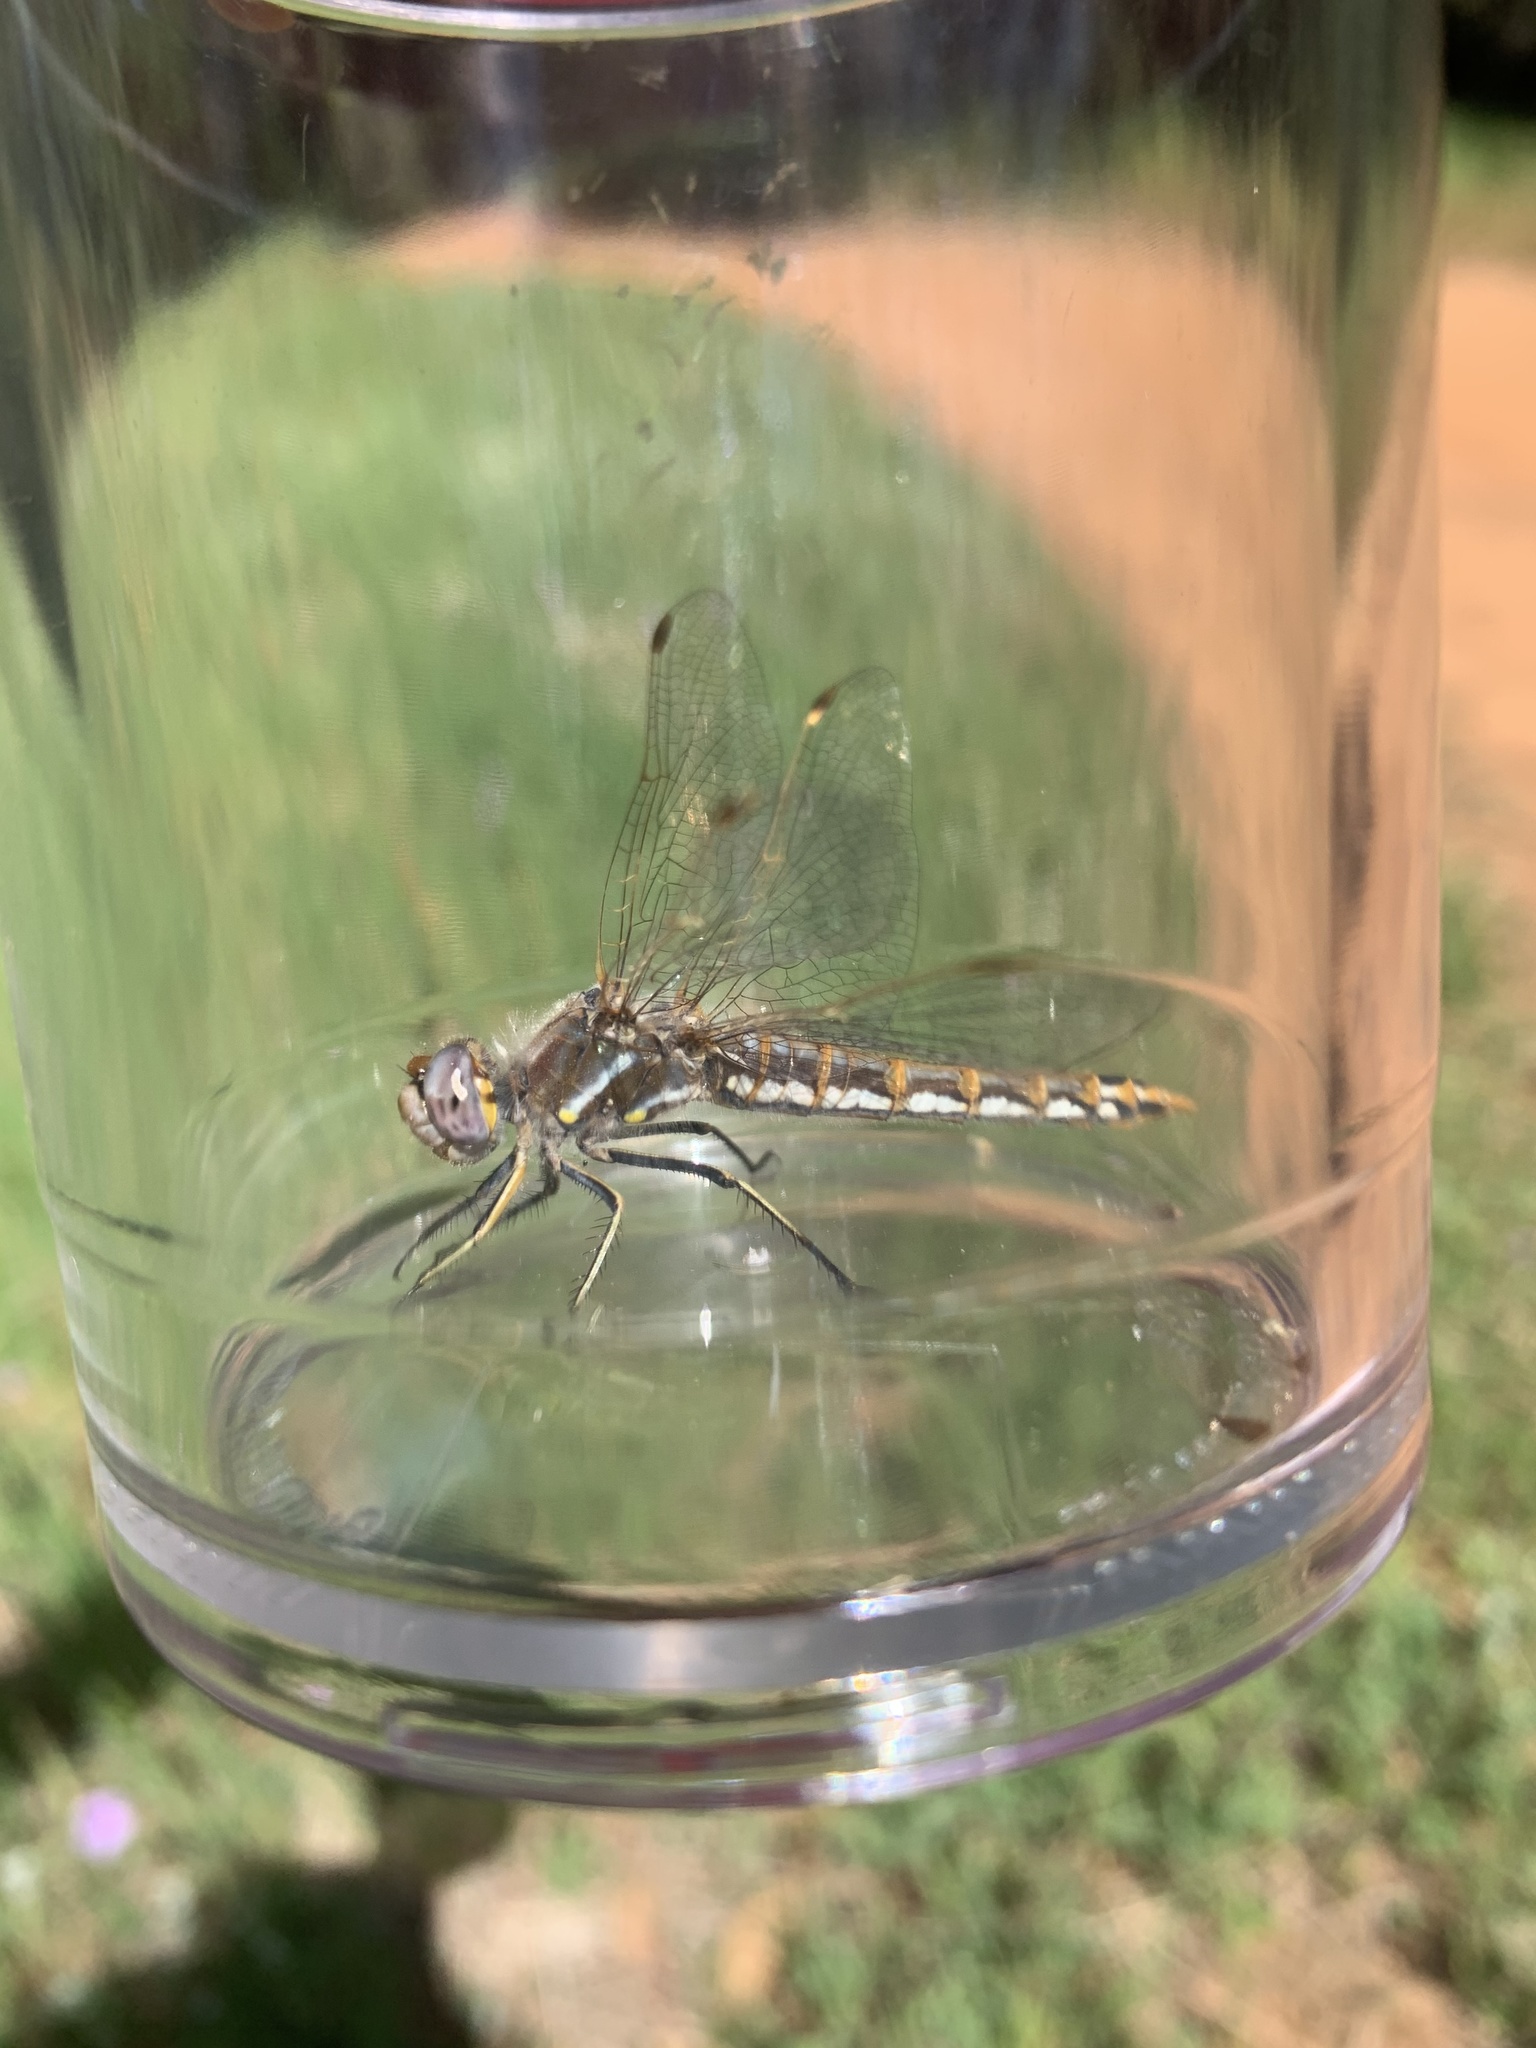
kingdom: Animalia
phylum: Arthropoda
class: Insecta
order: Odonata
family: Libellulidae
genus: Sympetrum
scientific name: Sympetrum corruptum
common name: Variegated meadowhawk
